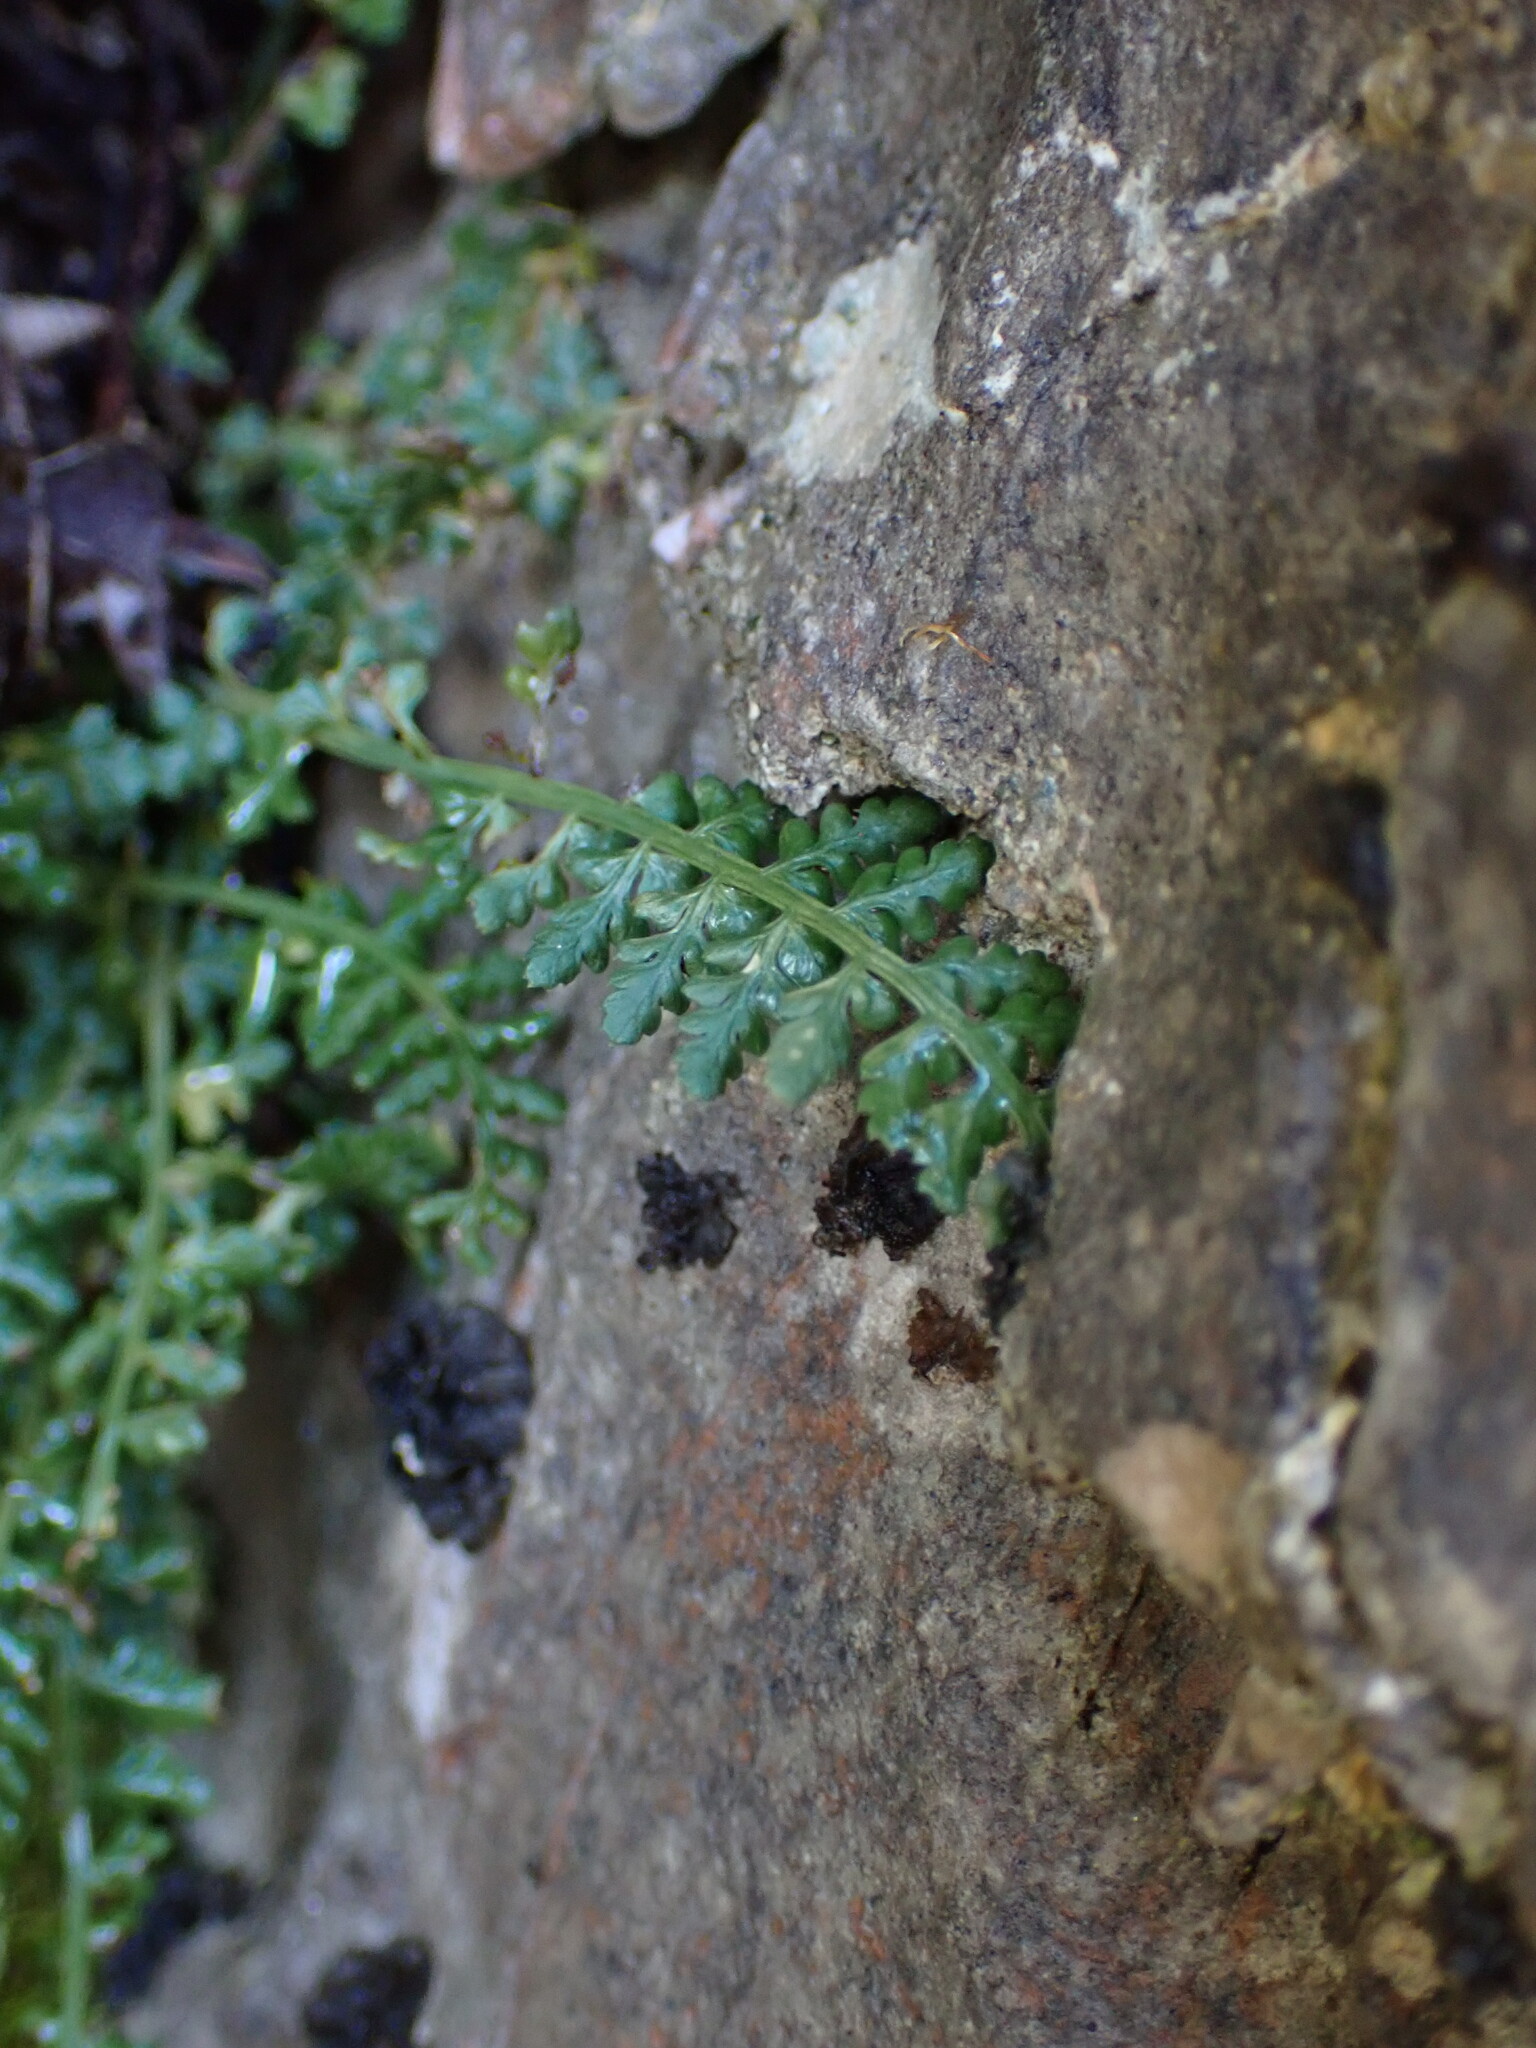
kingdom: Plantae
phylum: Tracheophyta
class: Polypodiopsida
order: Polypodiales
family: Aspleniaceae
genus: Asplenium
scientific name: Asplenium fontanum
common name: Fountain spleenwort
